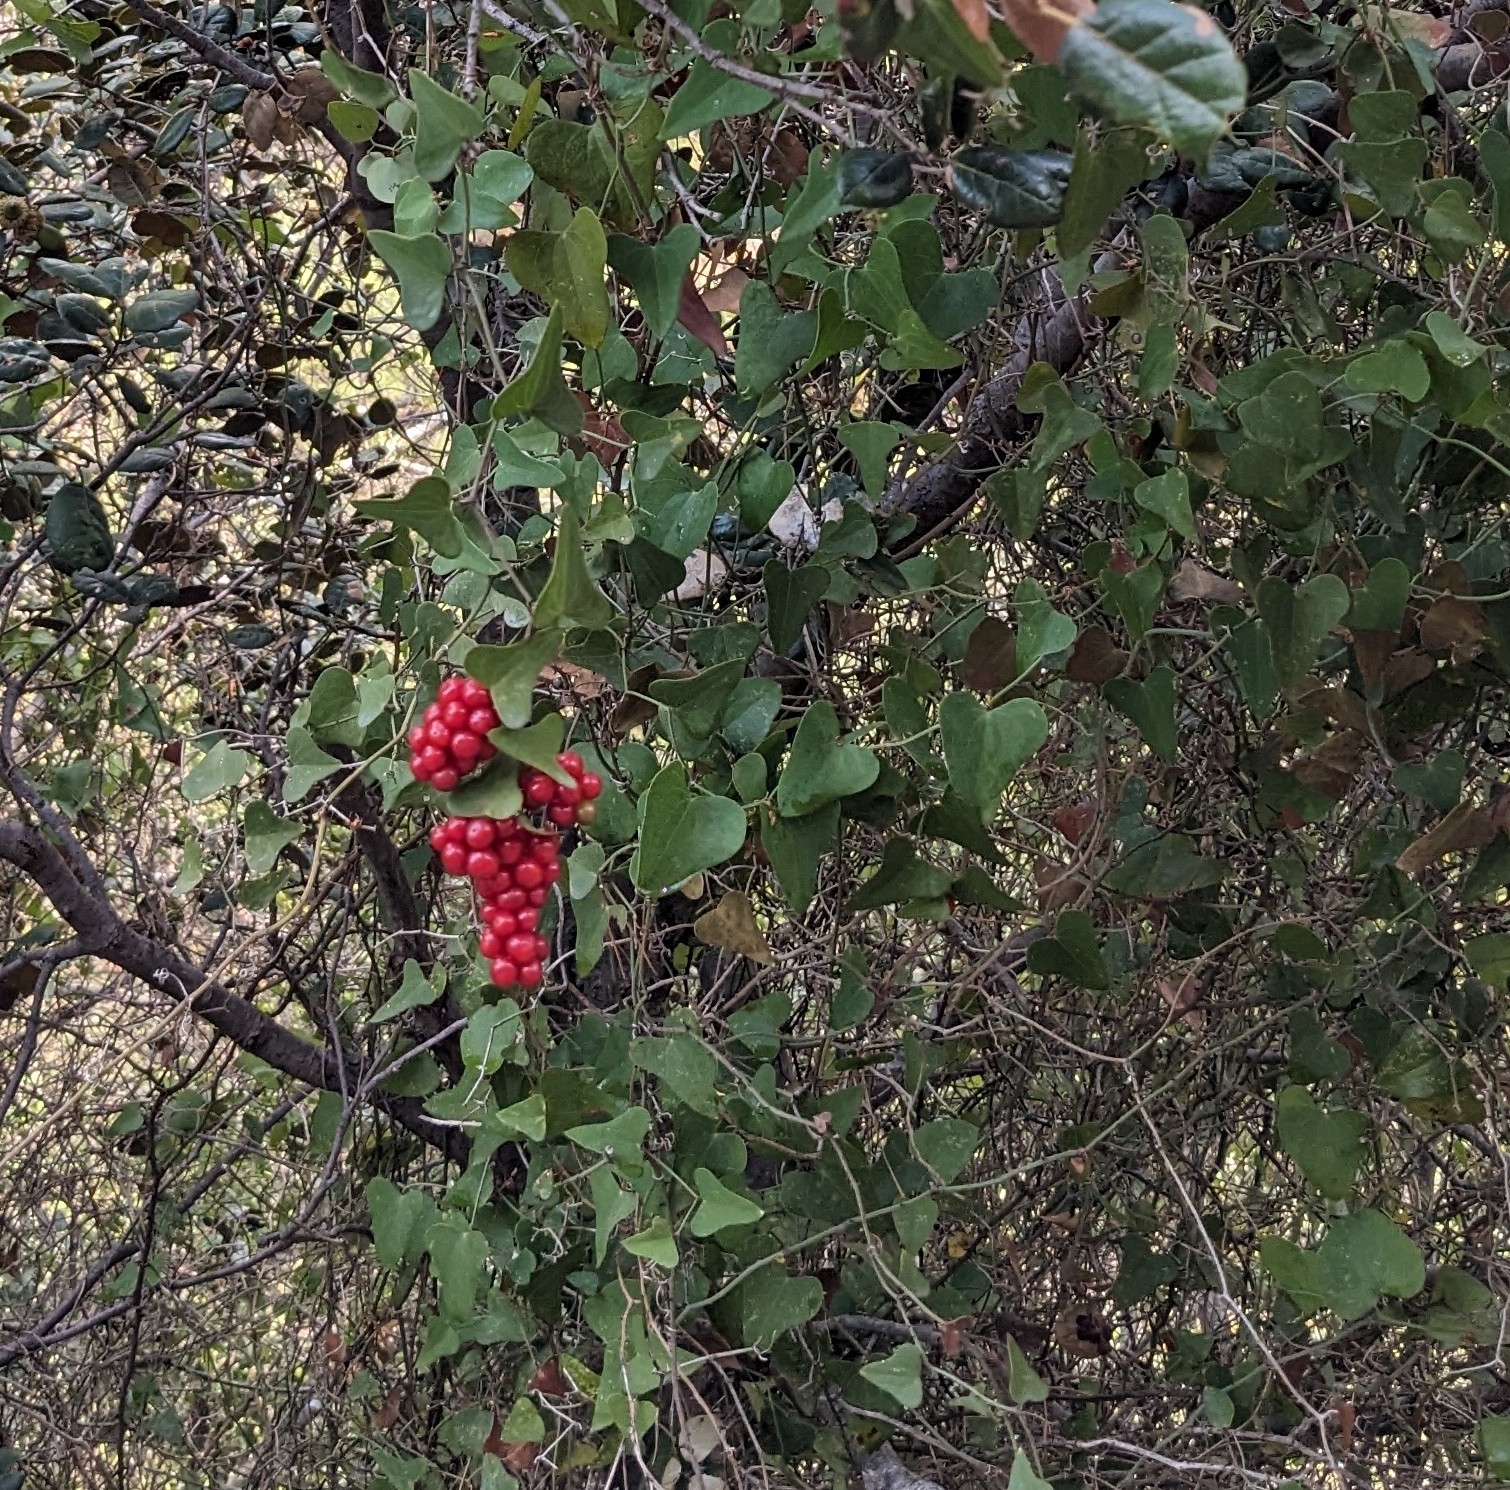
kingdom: Plantae
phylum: Tracheophyta
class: Liliopsida
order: Liliales
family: Smilacaceae
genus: Smilax
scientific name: Smilax aspera
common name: Common smilax
